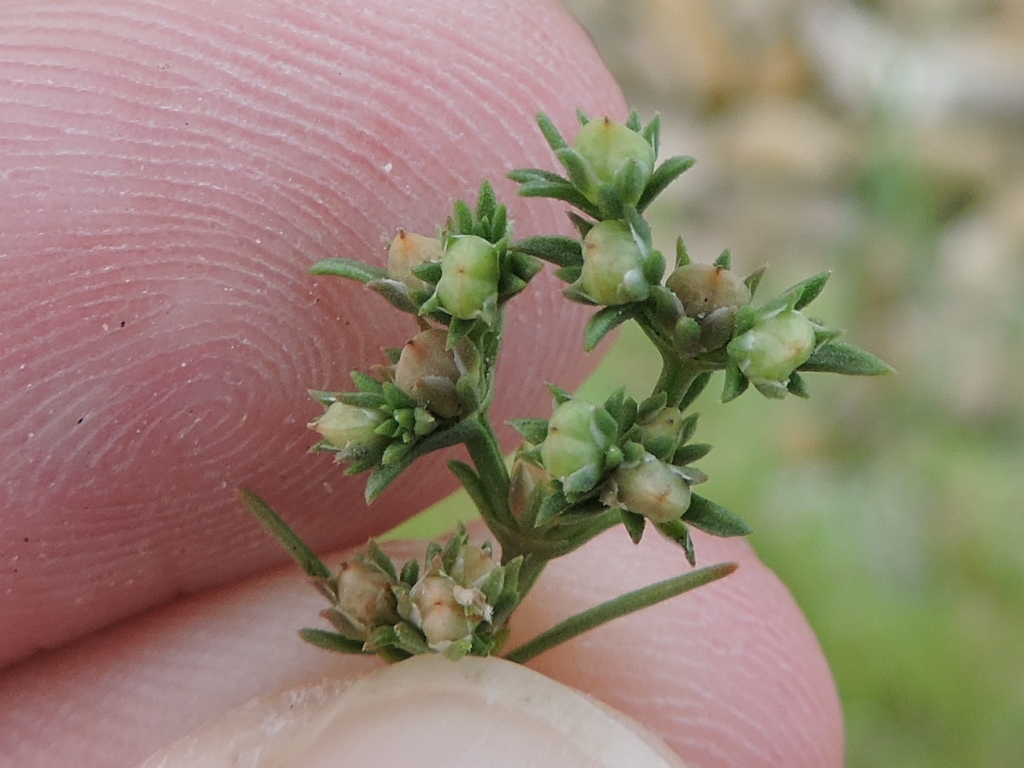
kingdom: Plantae
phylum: Tracheophyta
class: Magnoliopsida
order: Lamiales
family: Tetrachondraceae
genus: Polypremum
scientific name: Polypremum procumbens
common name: Juniper-leaf
